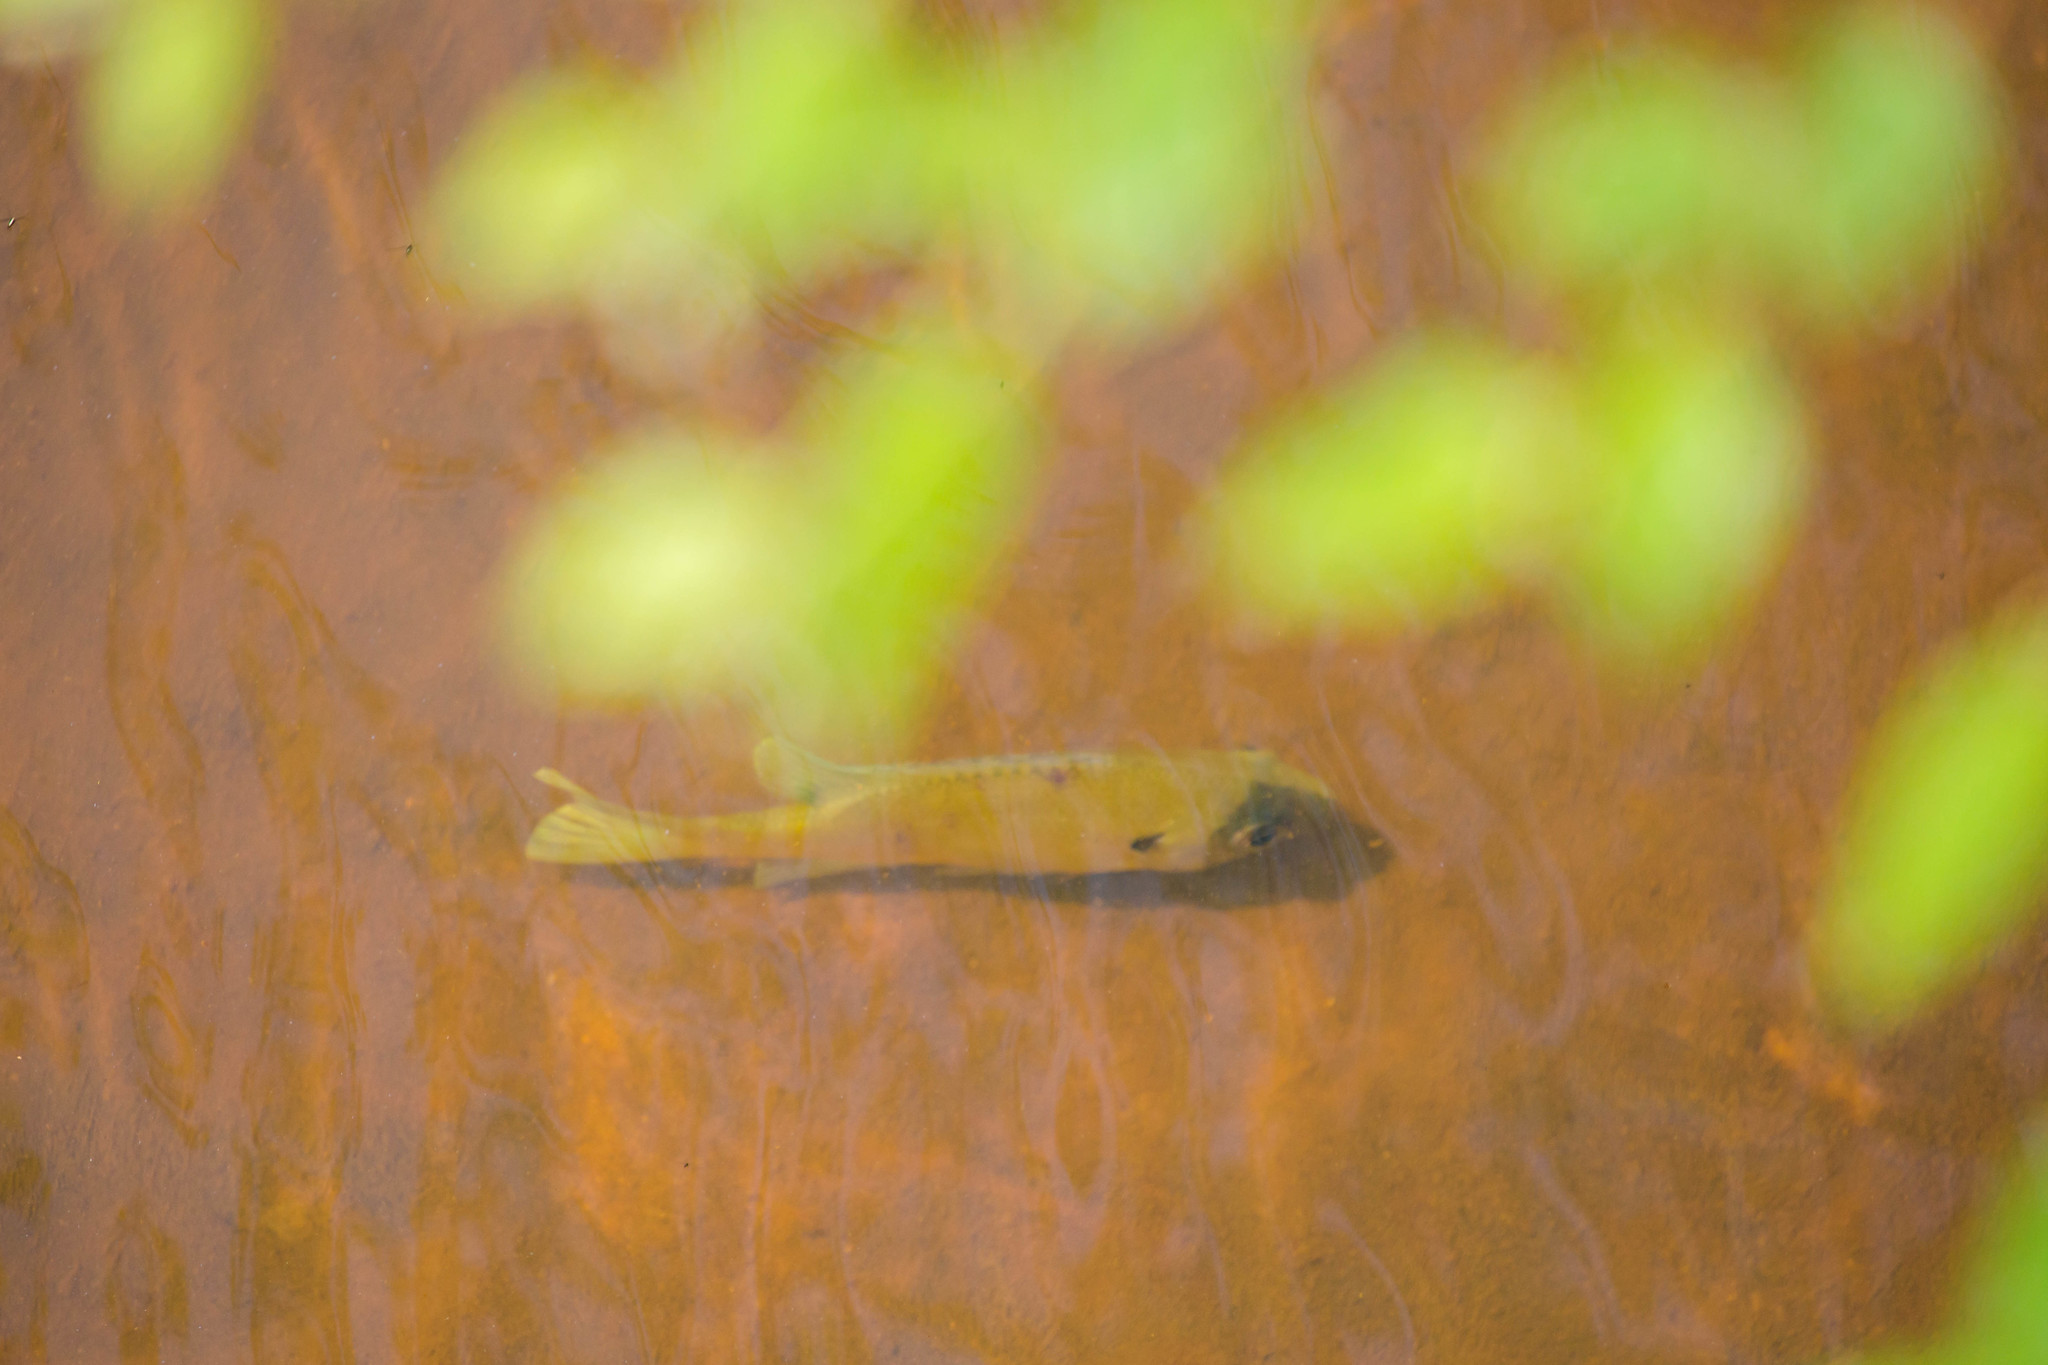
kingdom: Animalia
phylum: Chordata
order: Perciformes
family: Centrarchidae
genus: Lepomis
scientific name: Lepomis macrochirus
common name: Bluegill
